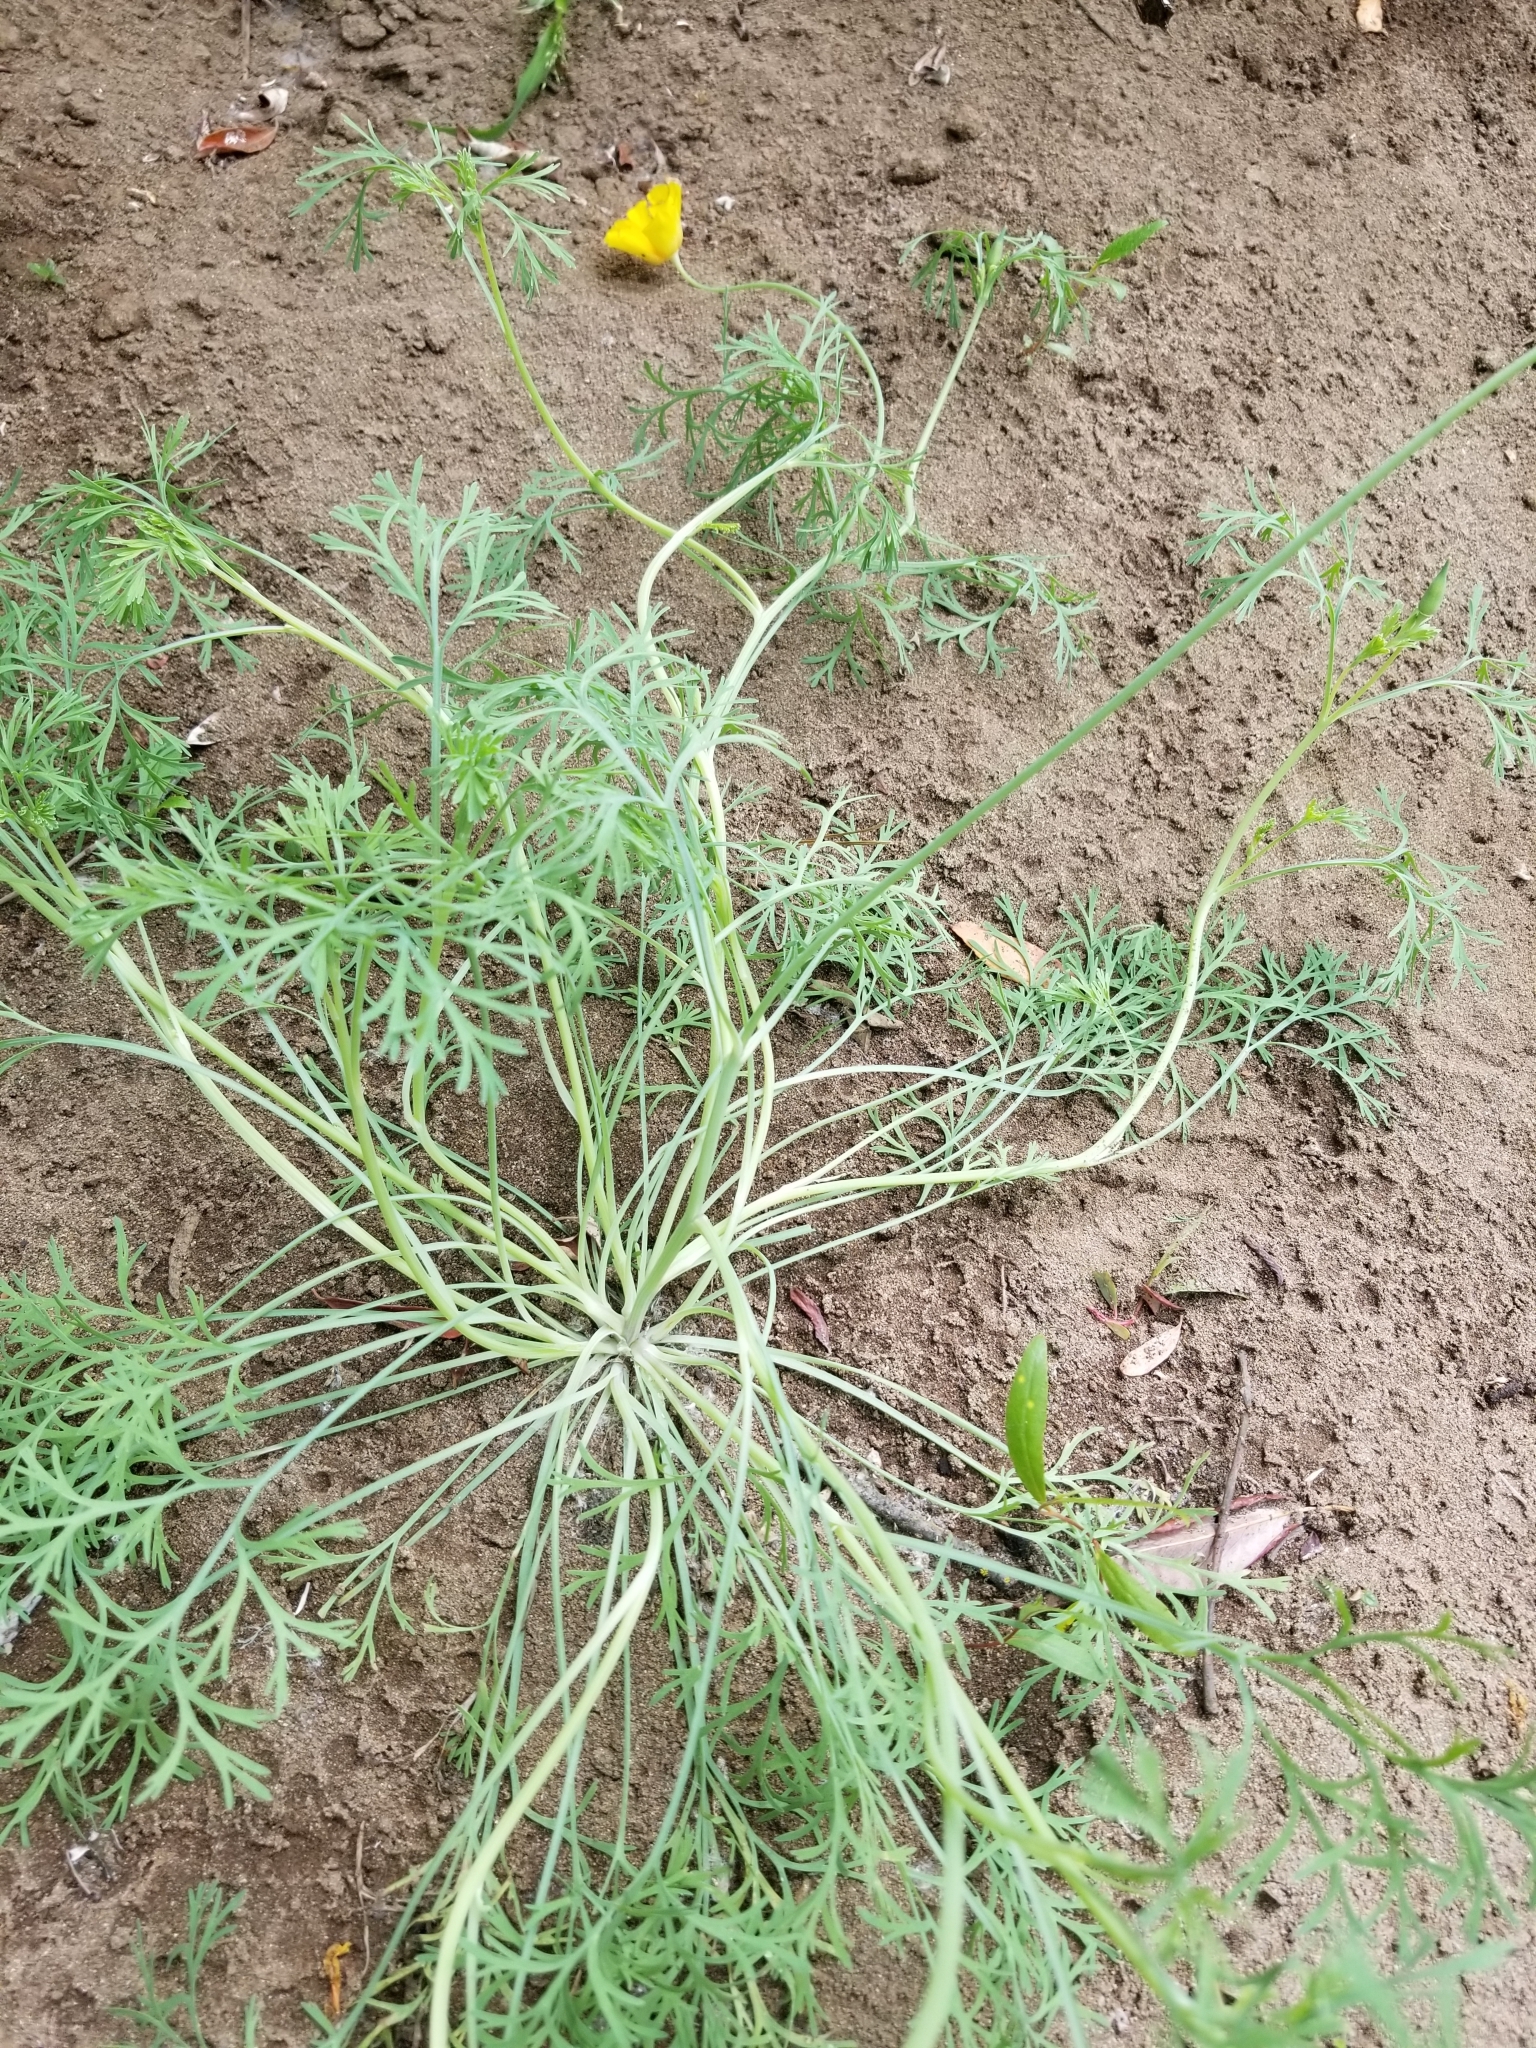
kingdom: Plantae
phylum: Tracheophyta
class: Magnoliopsida
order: Ranunculales
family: Papaveraceae
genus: Eschscholzia
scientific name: Eschscholzia californica
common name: California poppy
